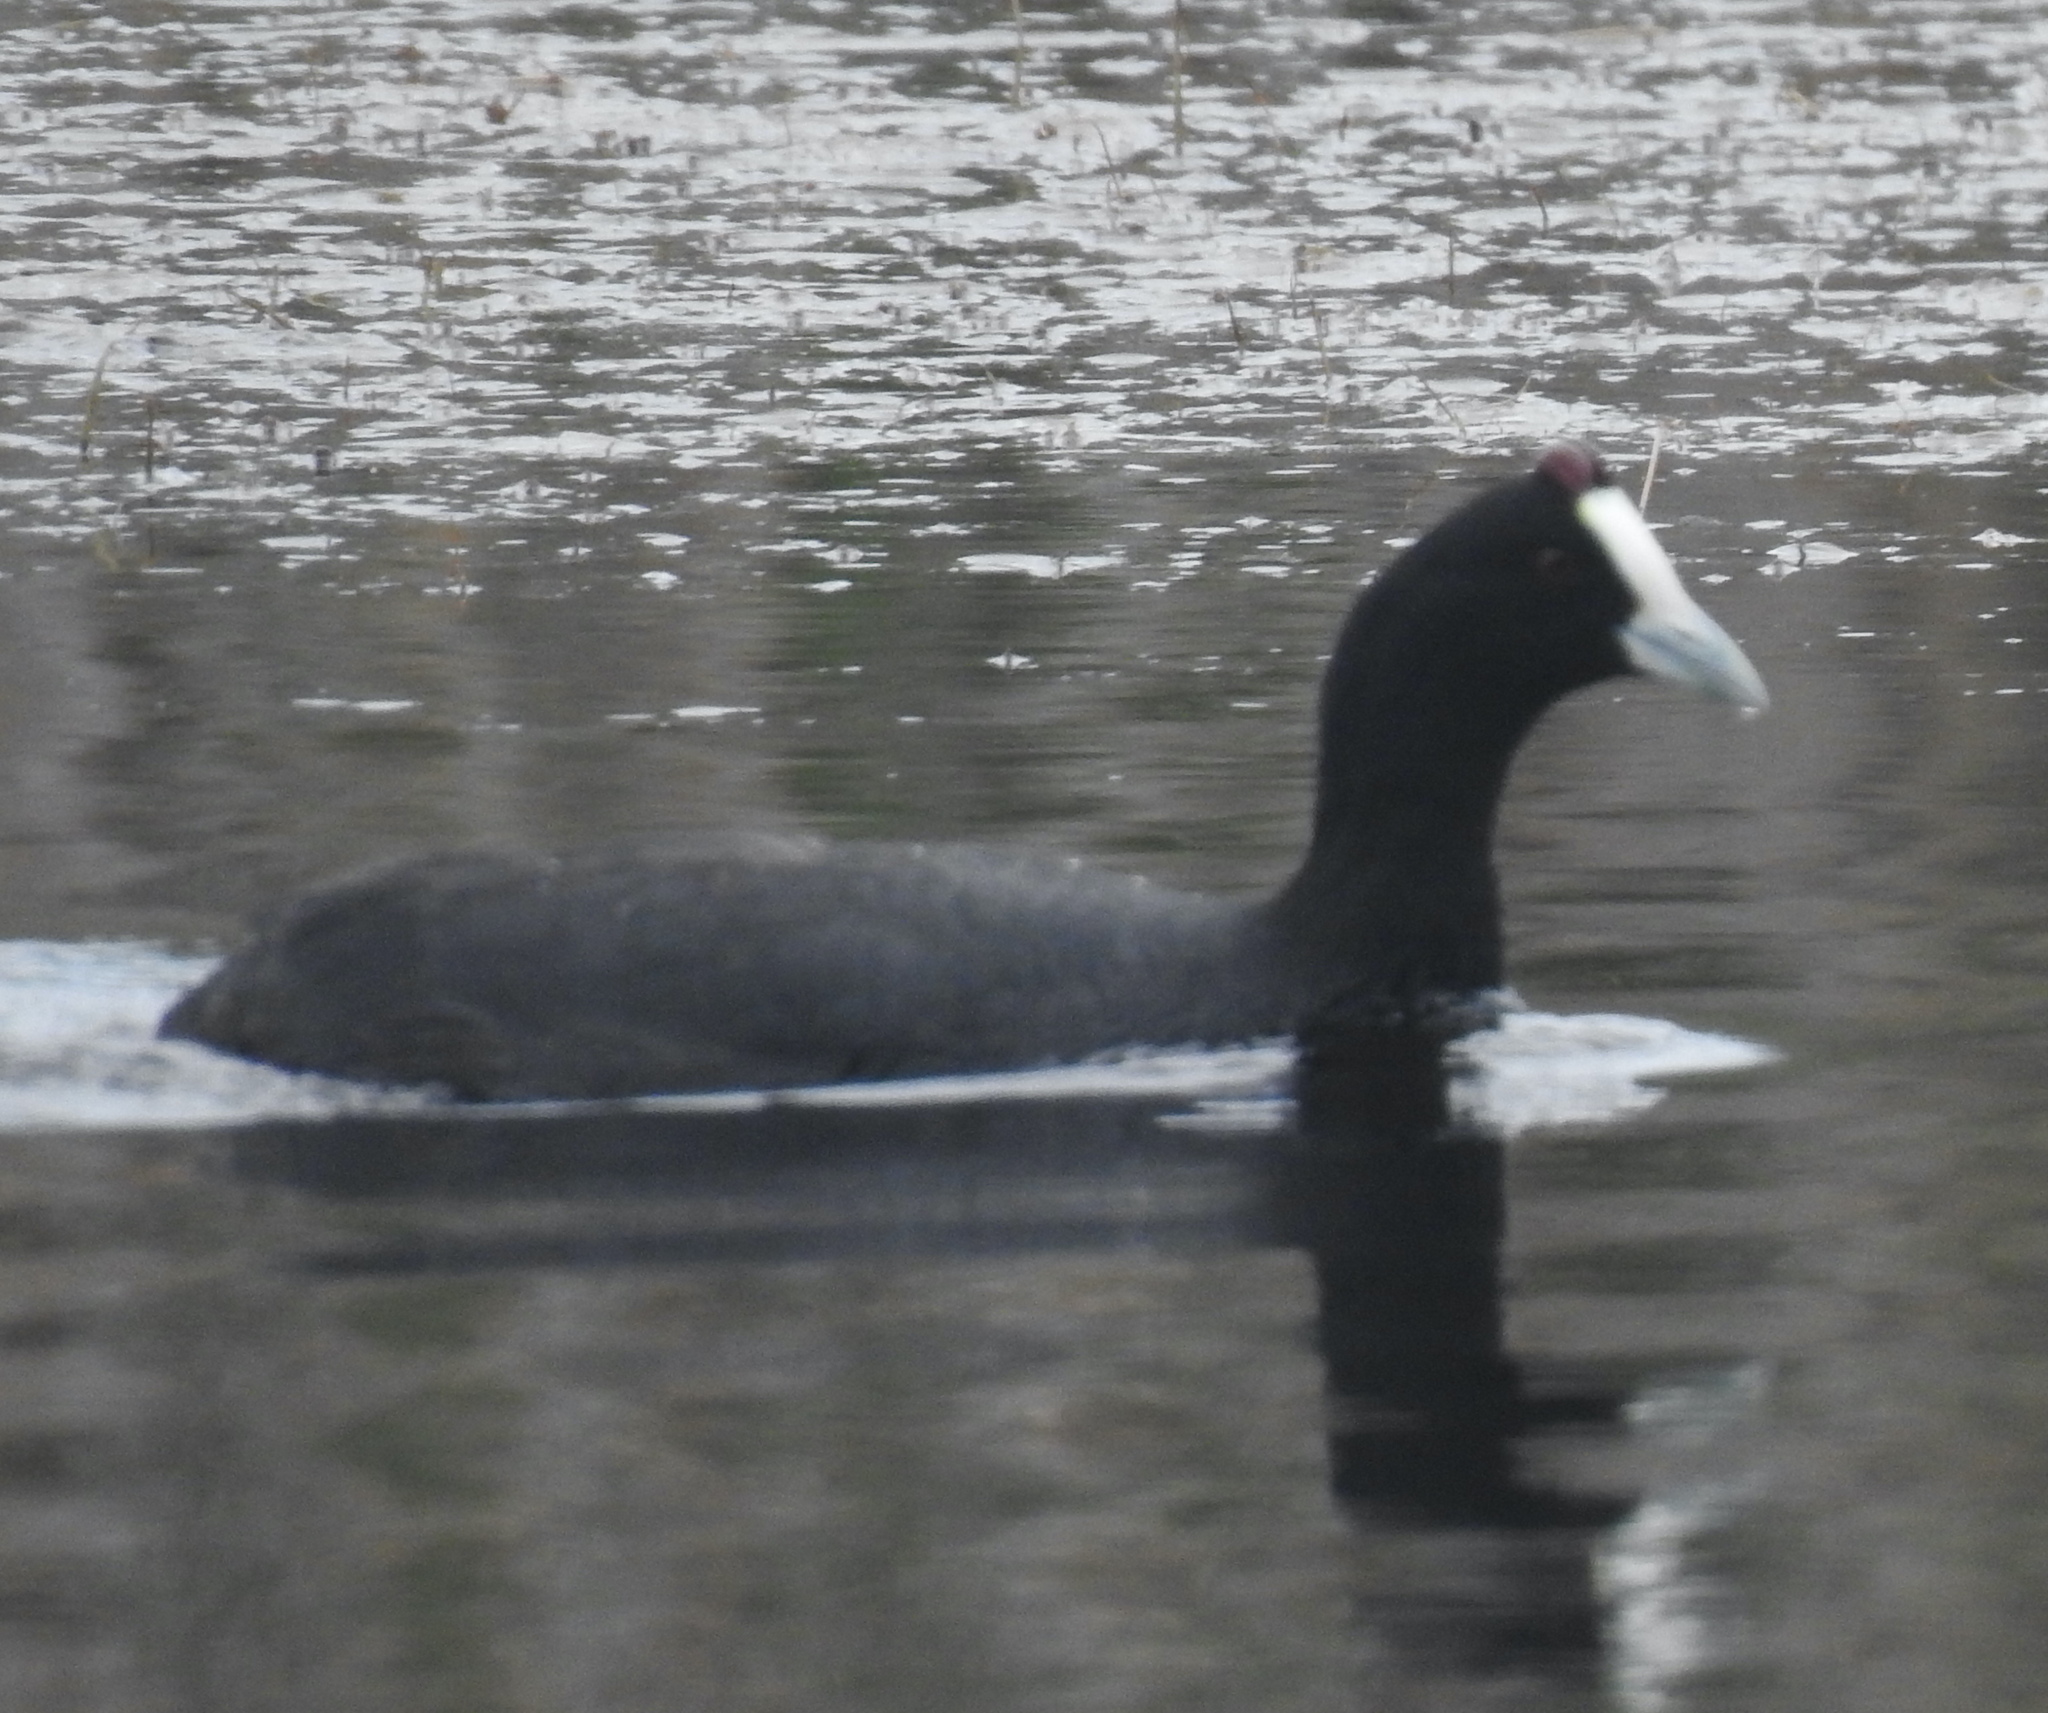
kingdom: Animalia
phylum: Chordata
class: Aves
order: Gruiformes
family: Rallidae
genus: Fulica
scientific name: Fulica cristata
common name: Red-knobbed coot
